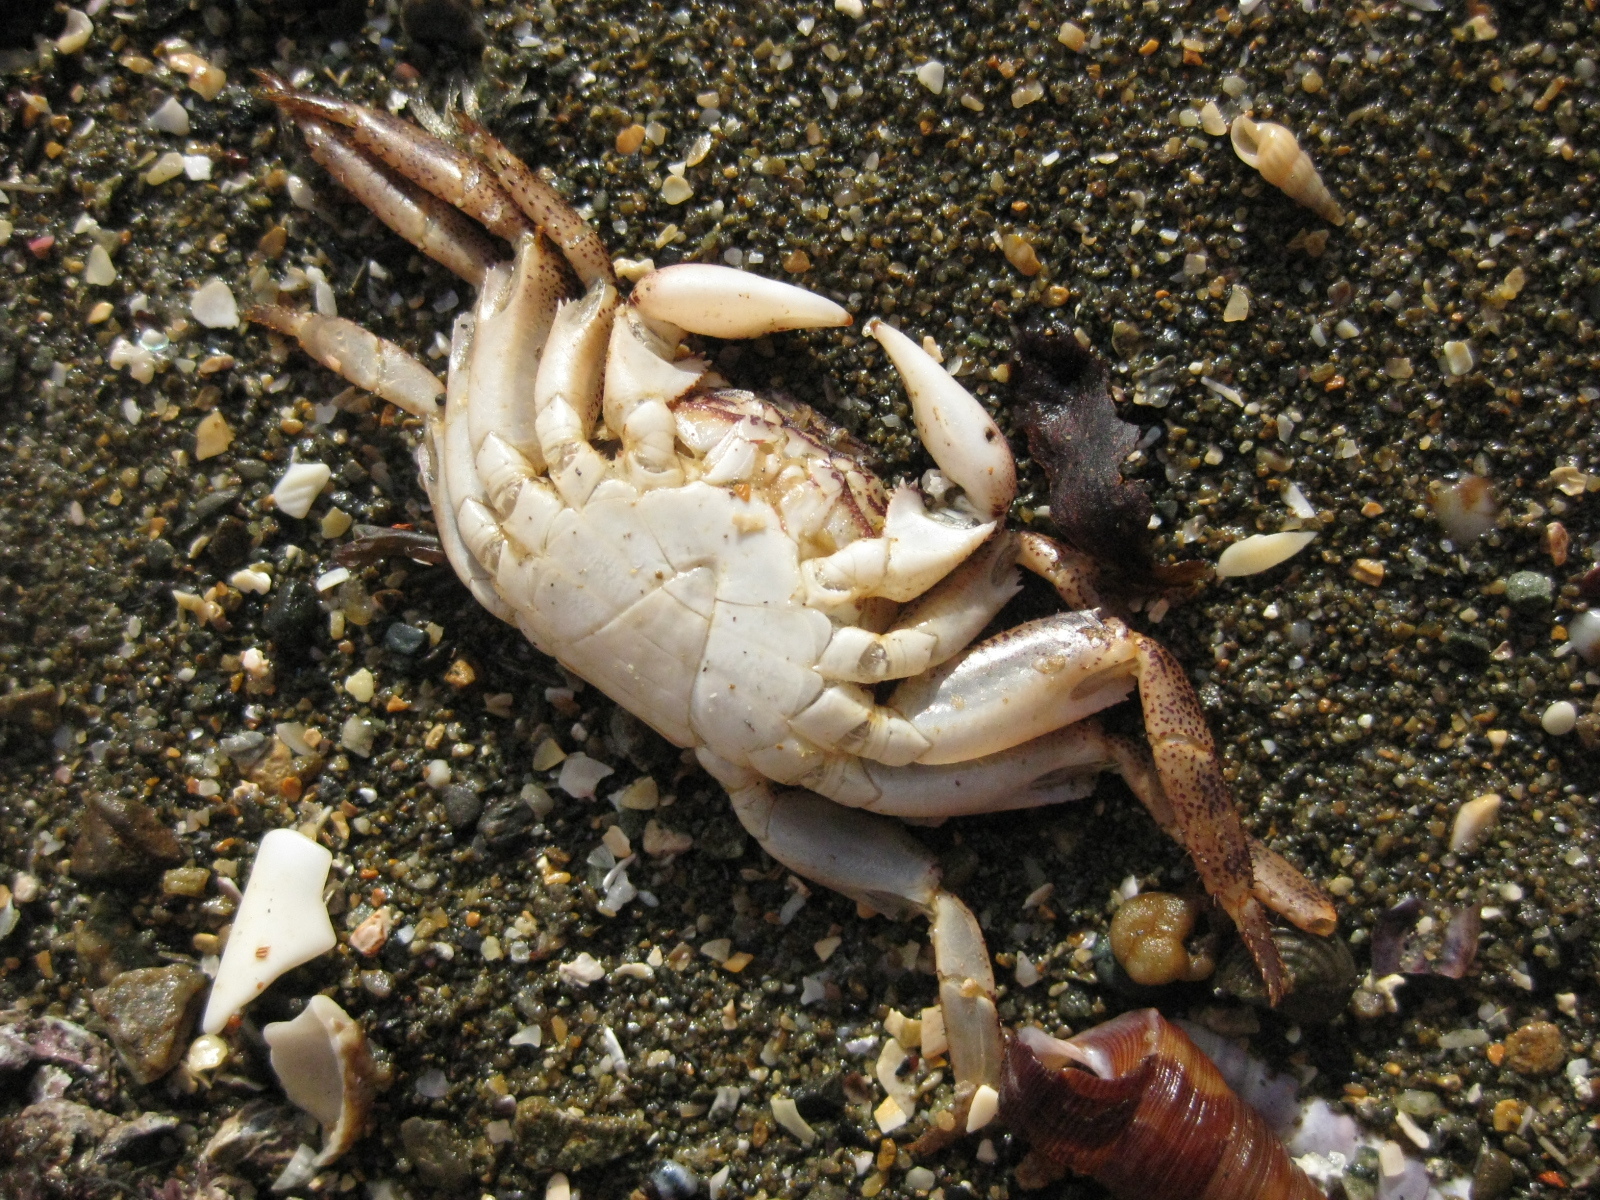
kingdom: Animalia
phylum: Arthropoda
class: Malacostraca
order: Decapoda
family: Grapsidae
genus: Leptograpsus
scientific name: Leptograpsus variegatus
